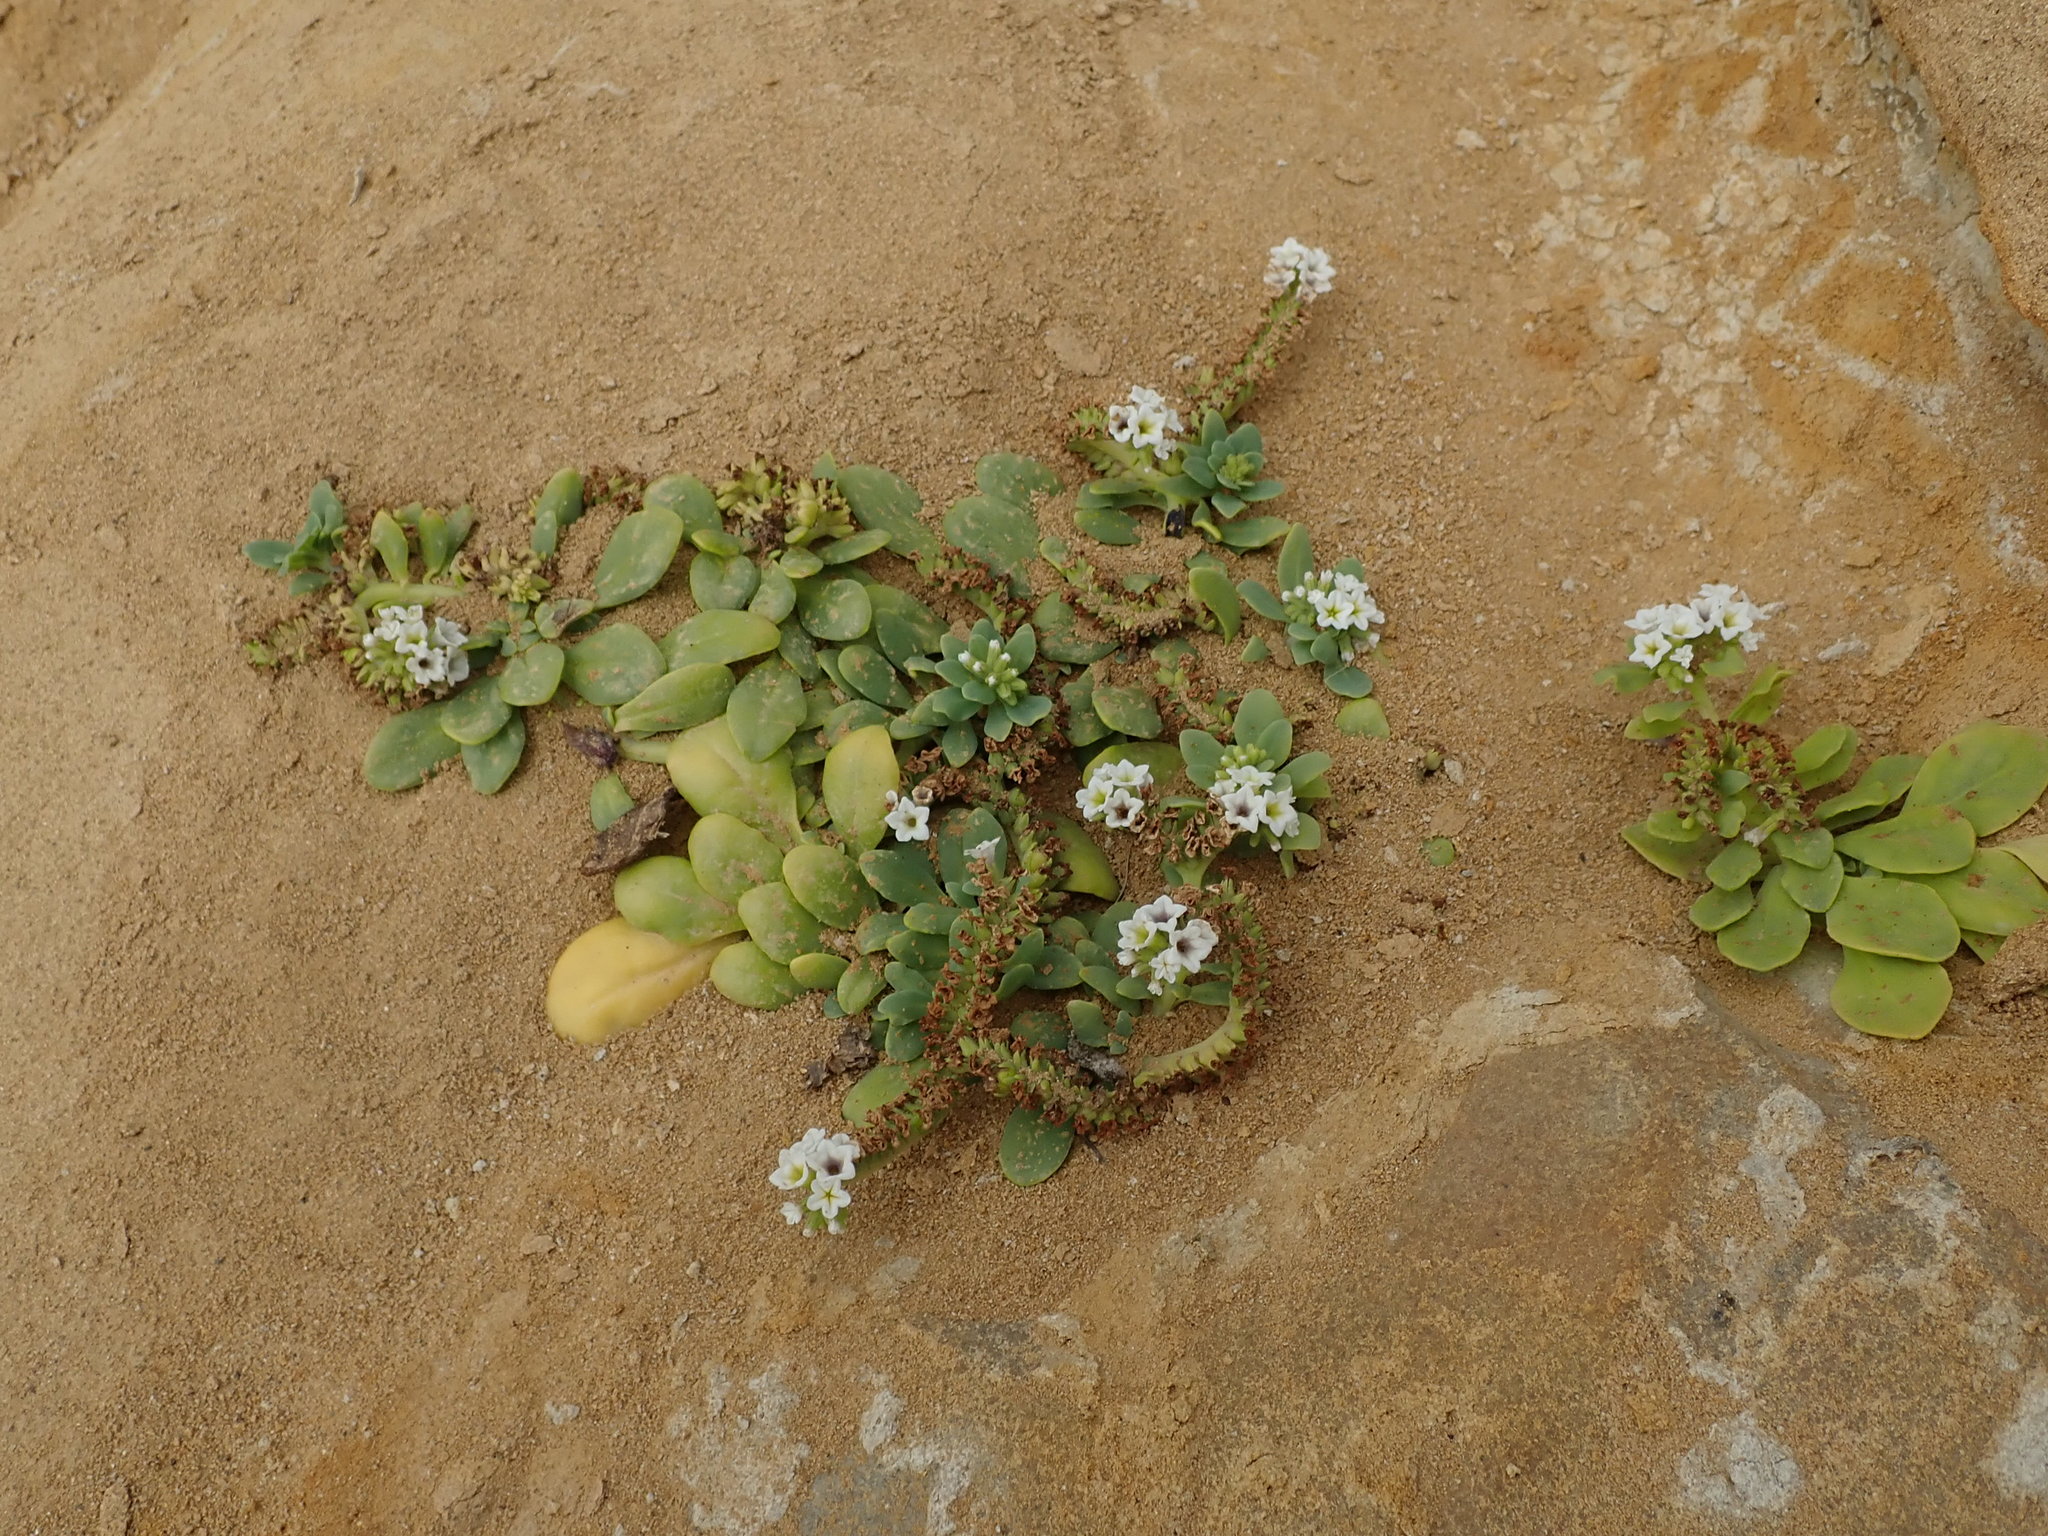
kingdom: Plantae
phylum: Tracheophyta
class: Magnoliopsida
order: Boraginales
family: Heliotropiaceae
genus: Heliotropium
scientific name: Heliotropium curassavicum
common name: Seaside heliotrope
